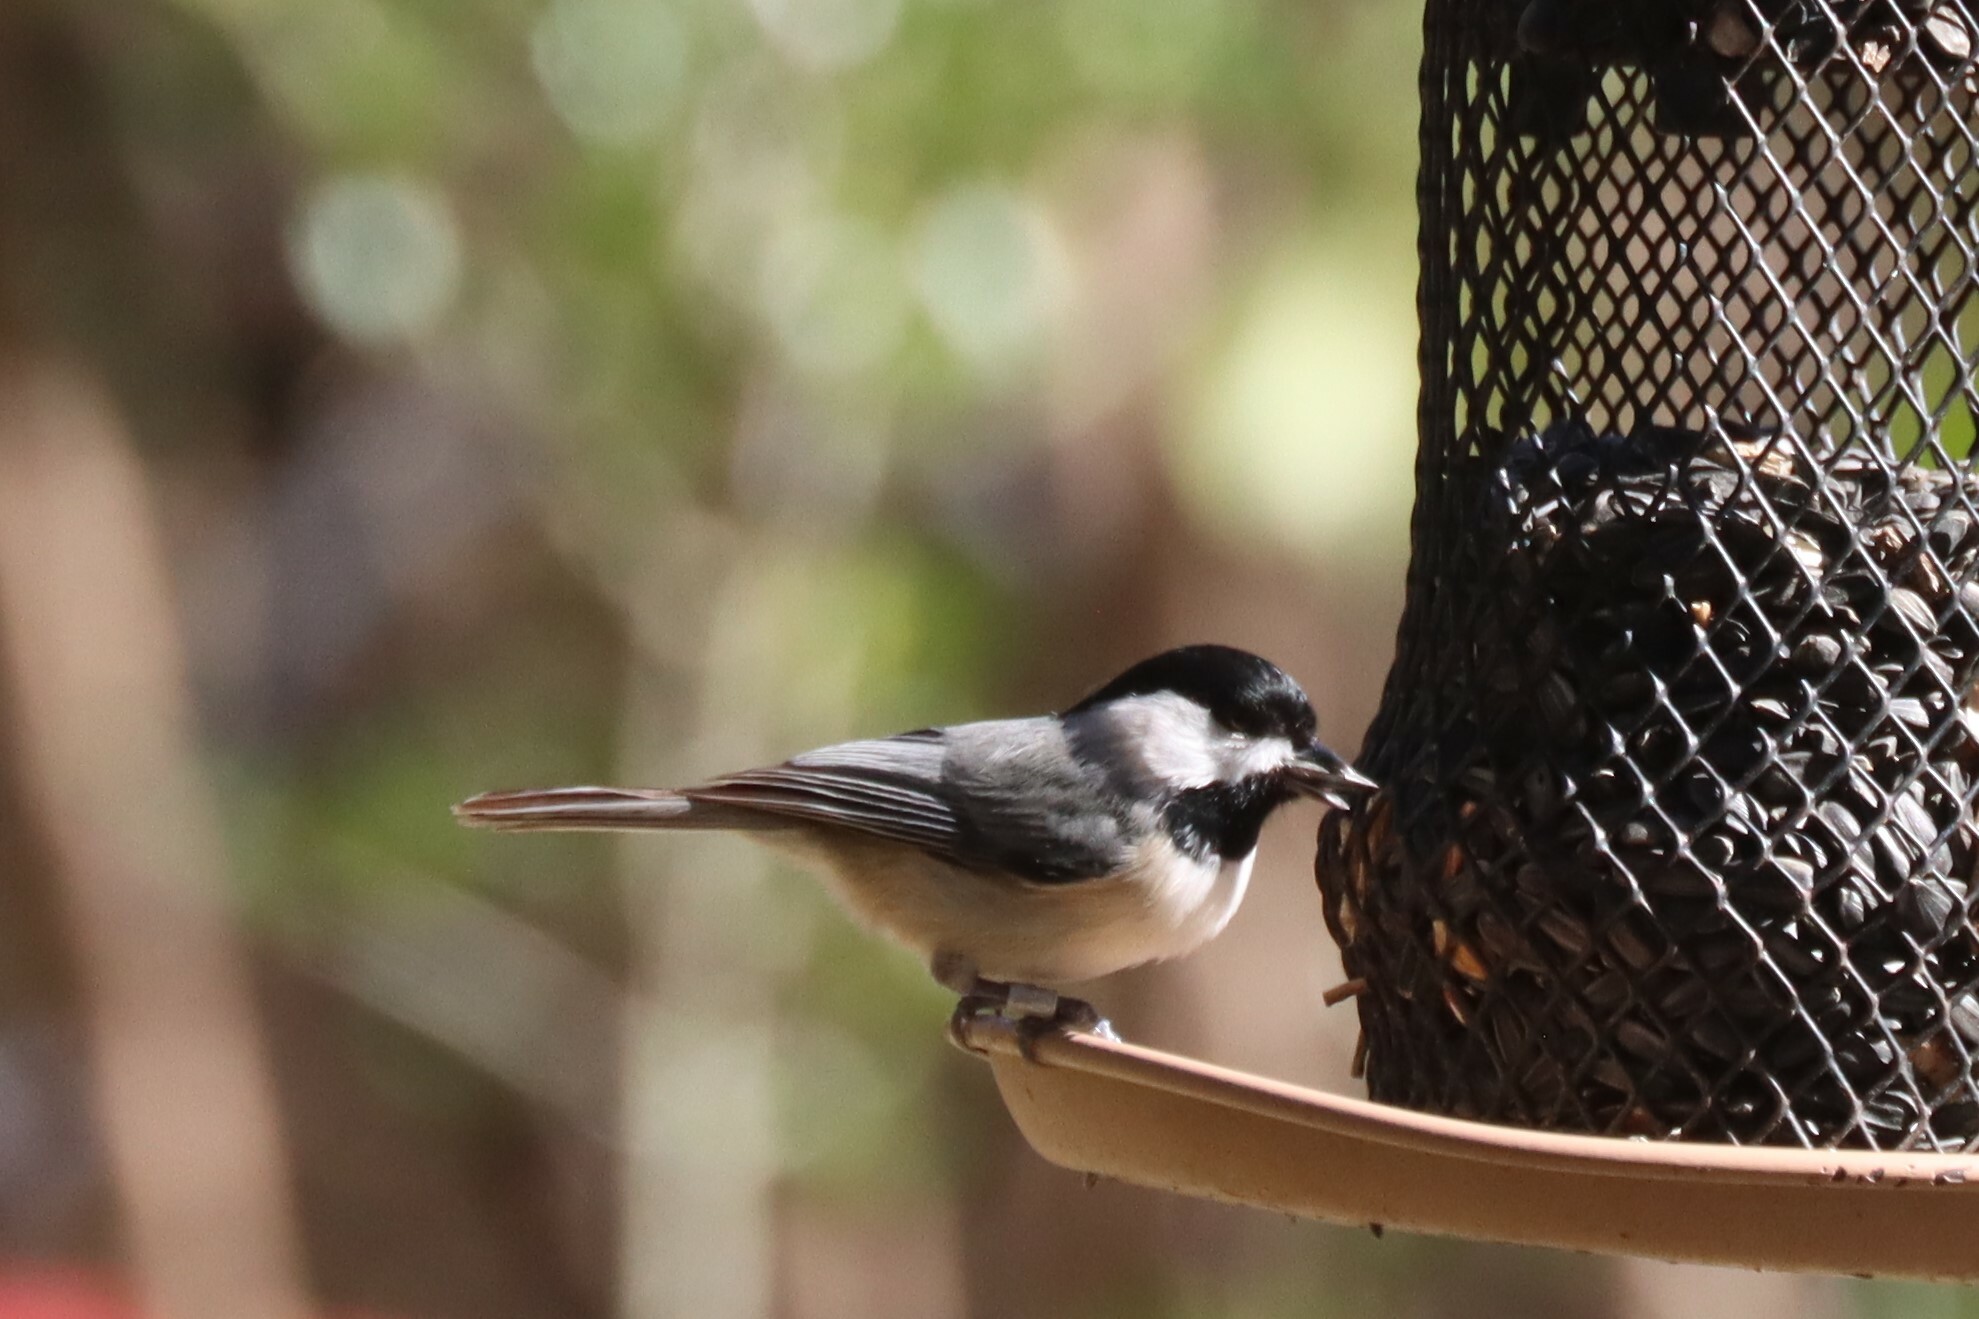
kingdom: Animalia
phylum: Chordata
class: Aves
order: Passeriformes
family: Paridae
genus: Poecile
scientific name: Poecile carolinensis
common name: Carolina chickadee
